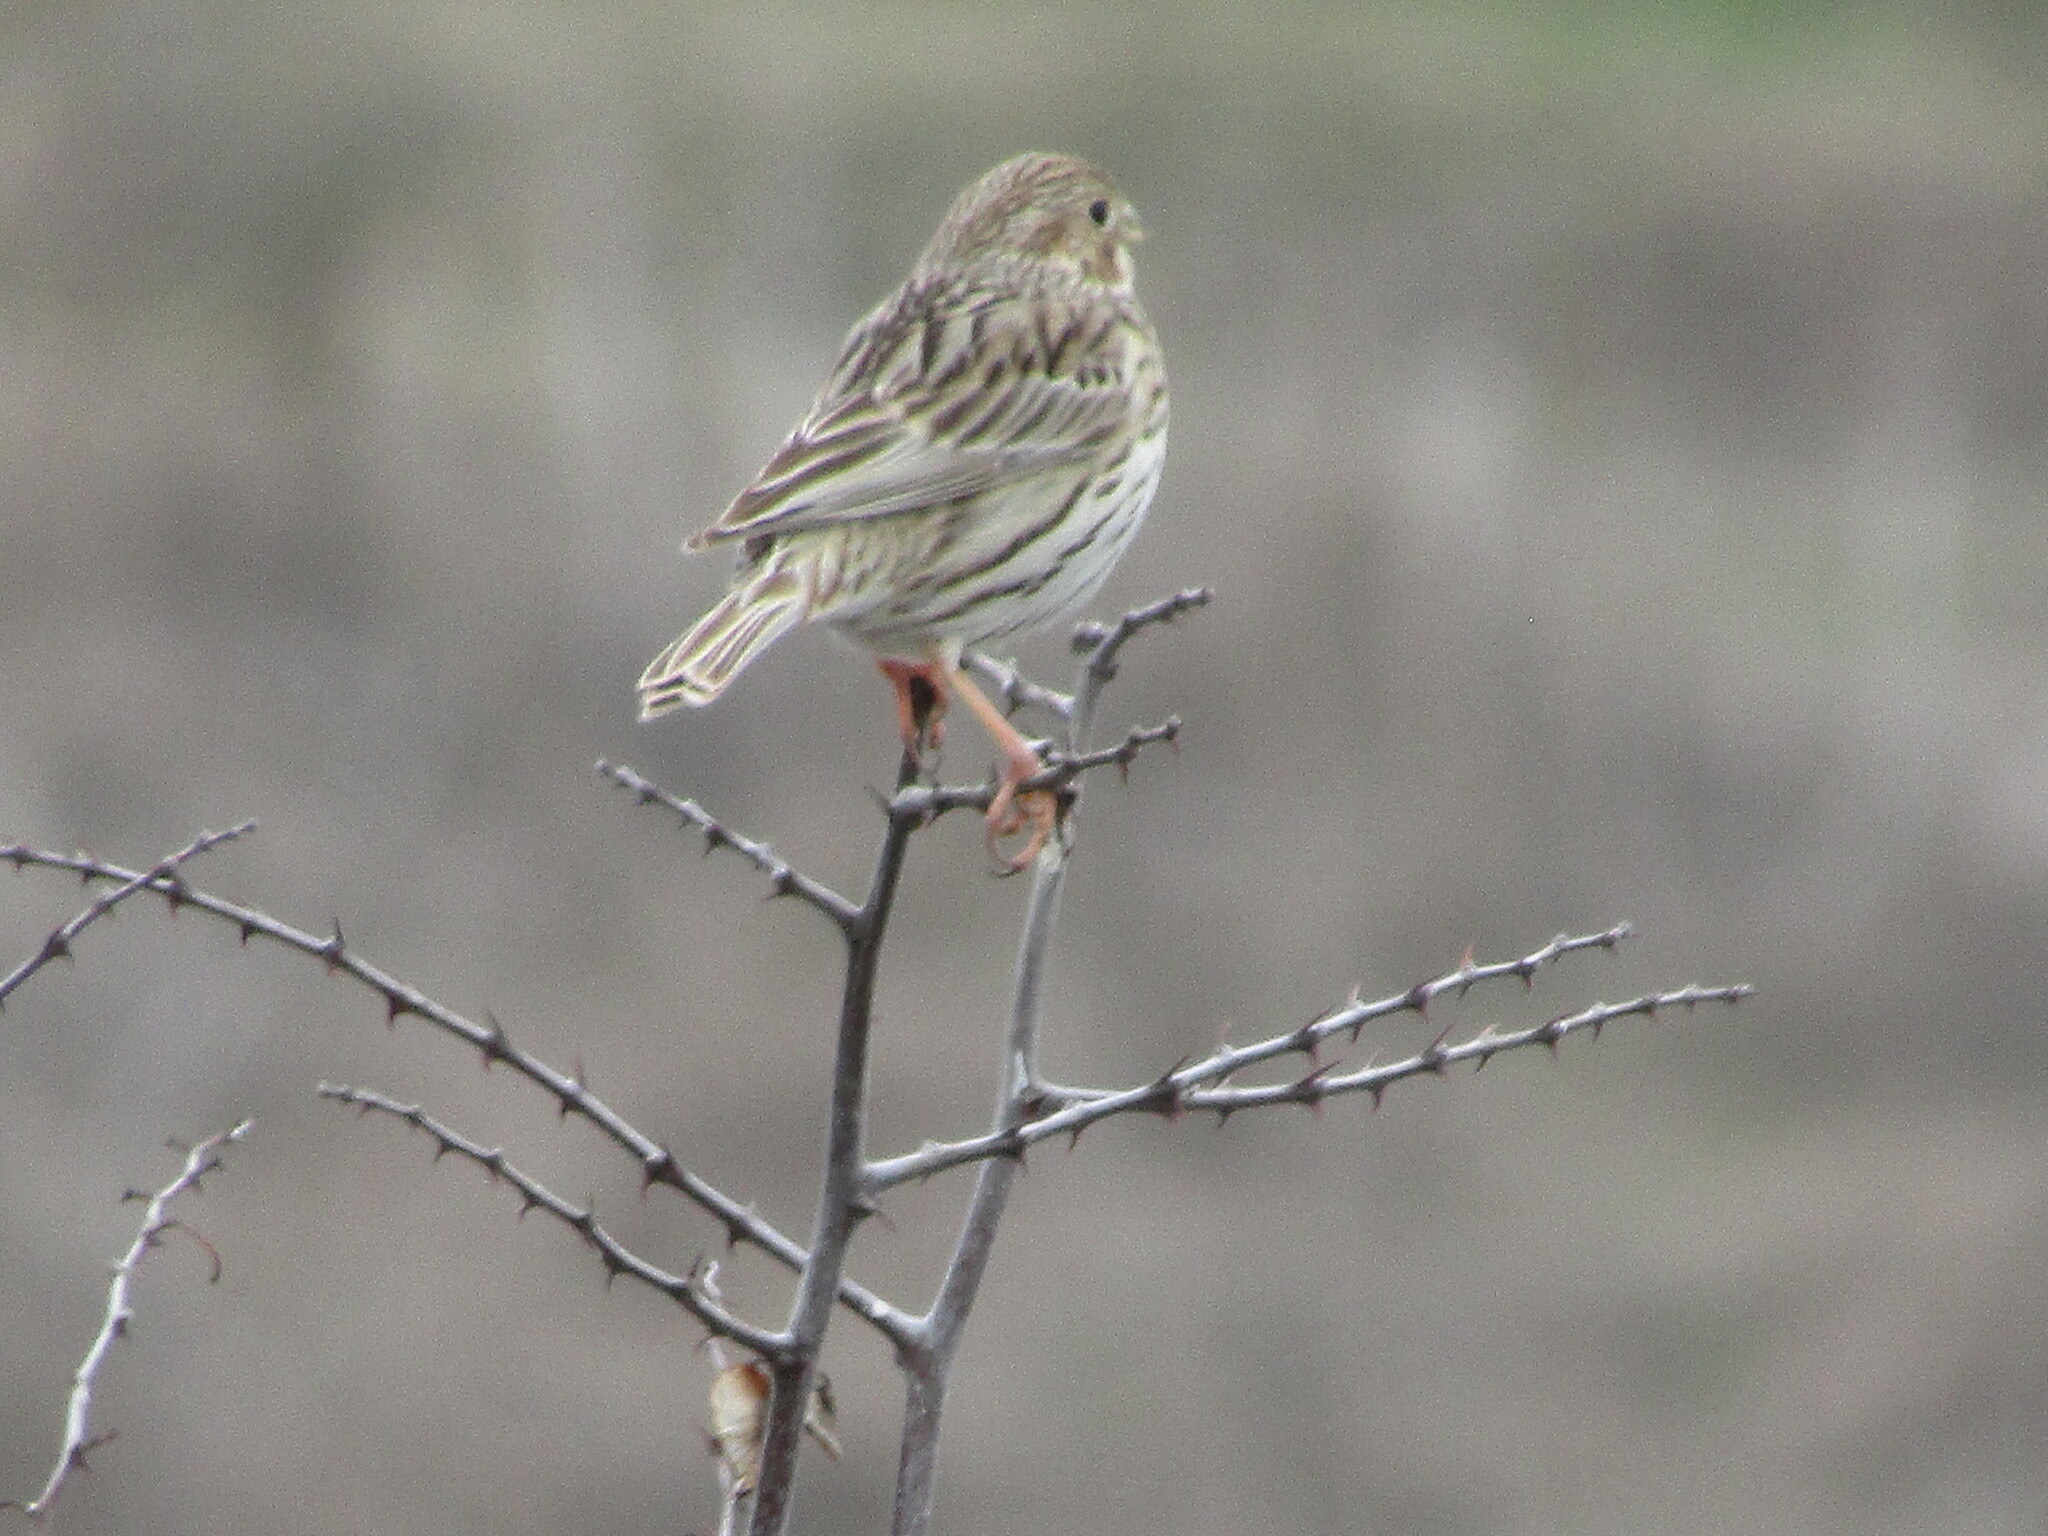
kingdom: Animalia
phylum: Chordata
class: Aves
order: Passeriformes
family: Emberizidae
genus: Emberiza
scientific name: Emberiza calandra
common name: Corn bunting
